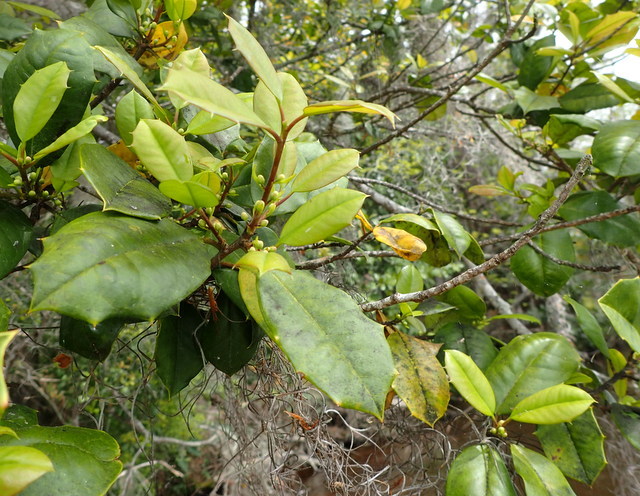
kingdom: Plantae
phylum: Tracheophyta
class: Magnoliopsida
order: Aquifoliales
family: Aquifoliaceae
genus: Ilex
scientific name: Ilex opaca
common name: American holly
